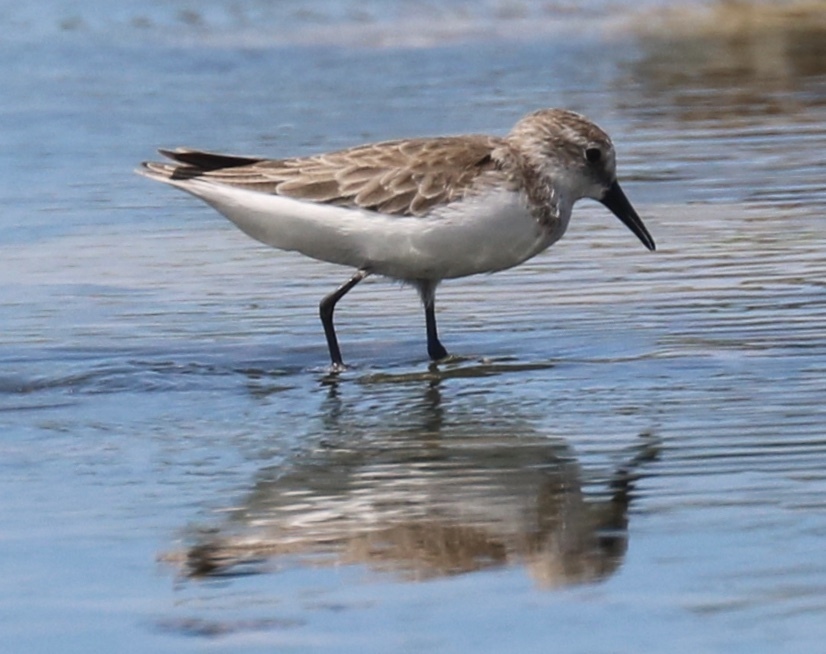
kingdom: Animalia
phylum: Chordata
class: Aves
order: Charadriiformes
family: Scolopacidae
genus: Calidris
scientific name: Calidris pusilla
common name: Semipalmated sandpiper
